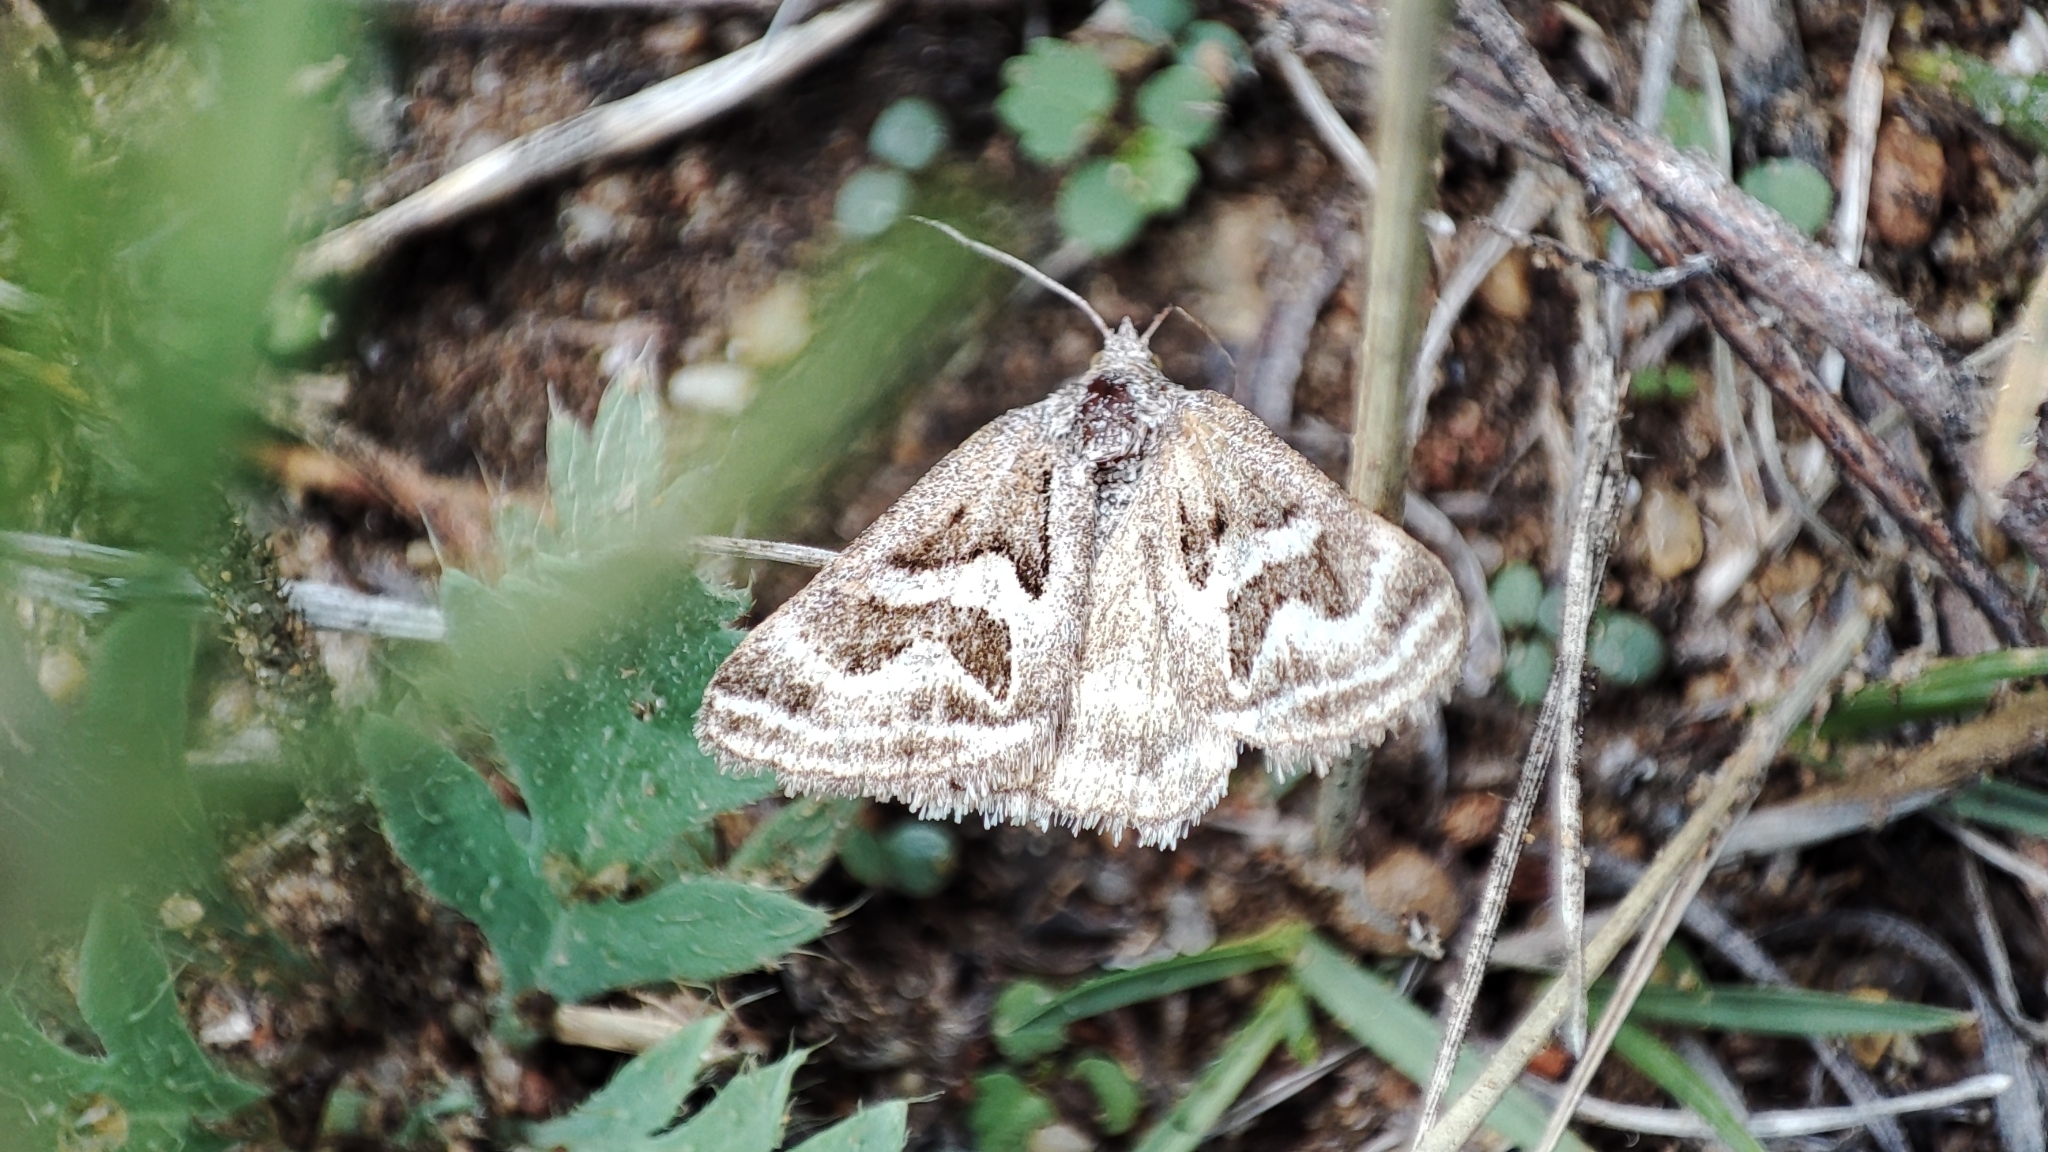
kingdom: Animalia
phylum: Arthropoda
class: Insecta
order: Lepidoptera
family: Erebidae
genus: Callistege
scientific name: Callistege
